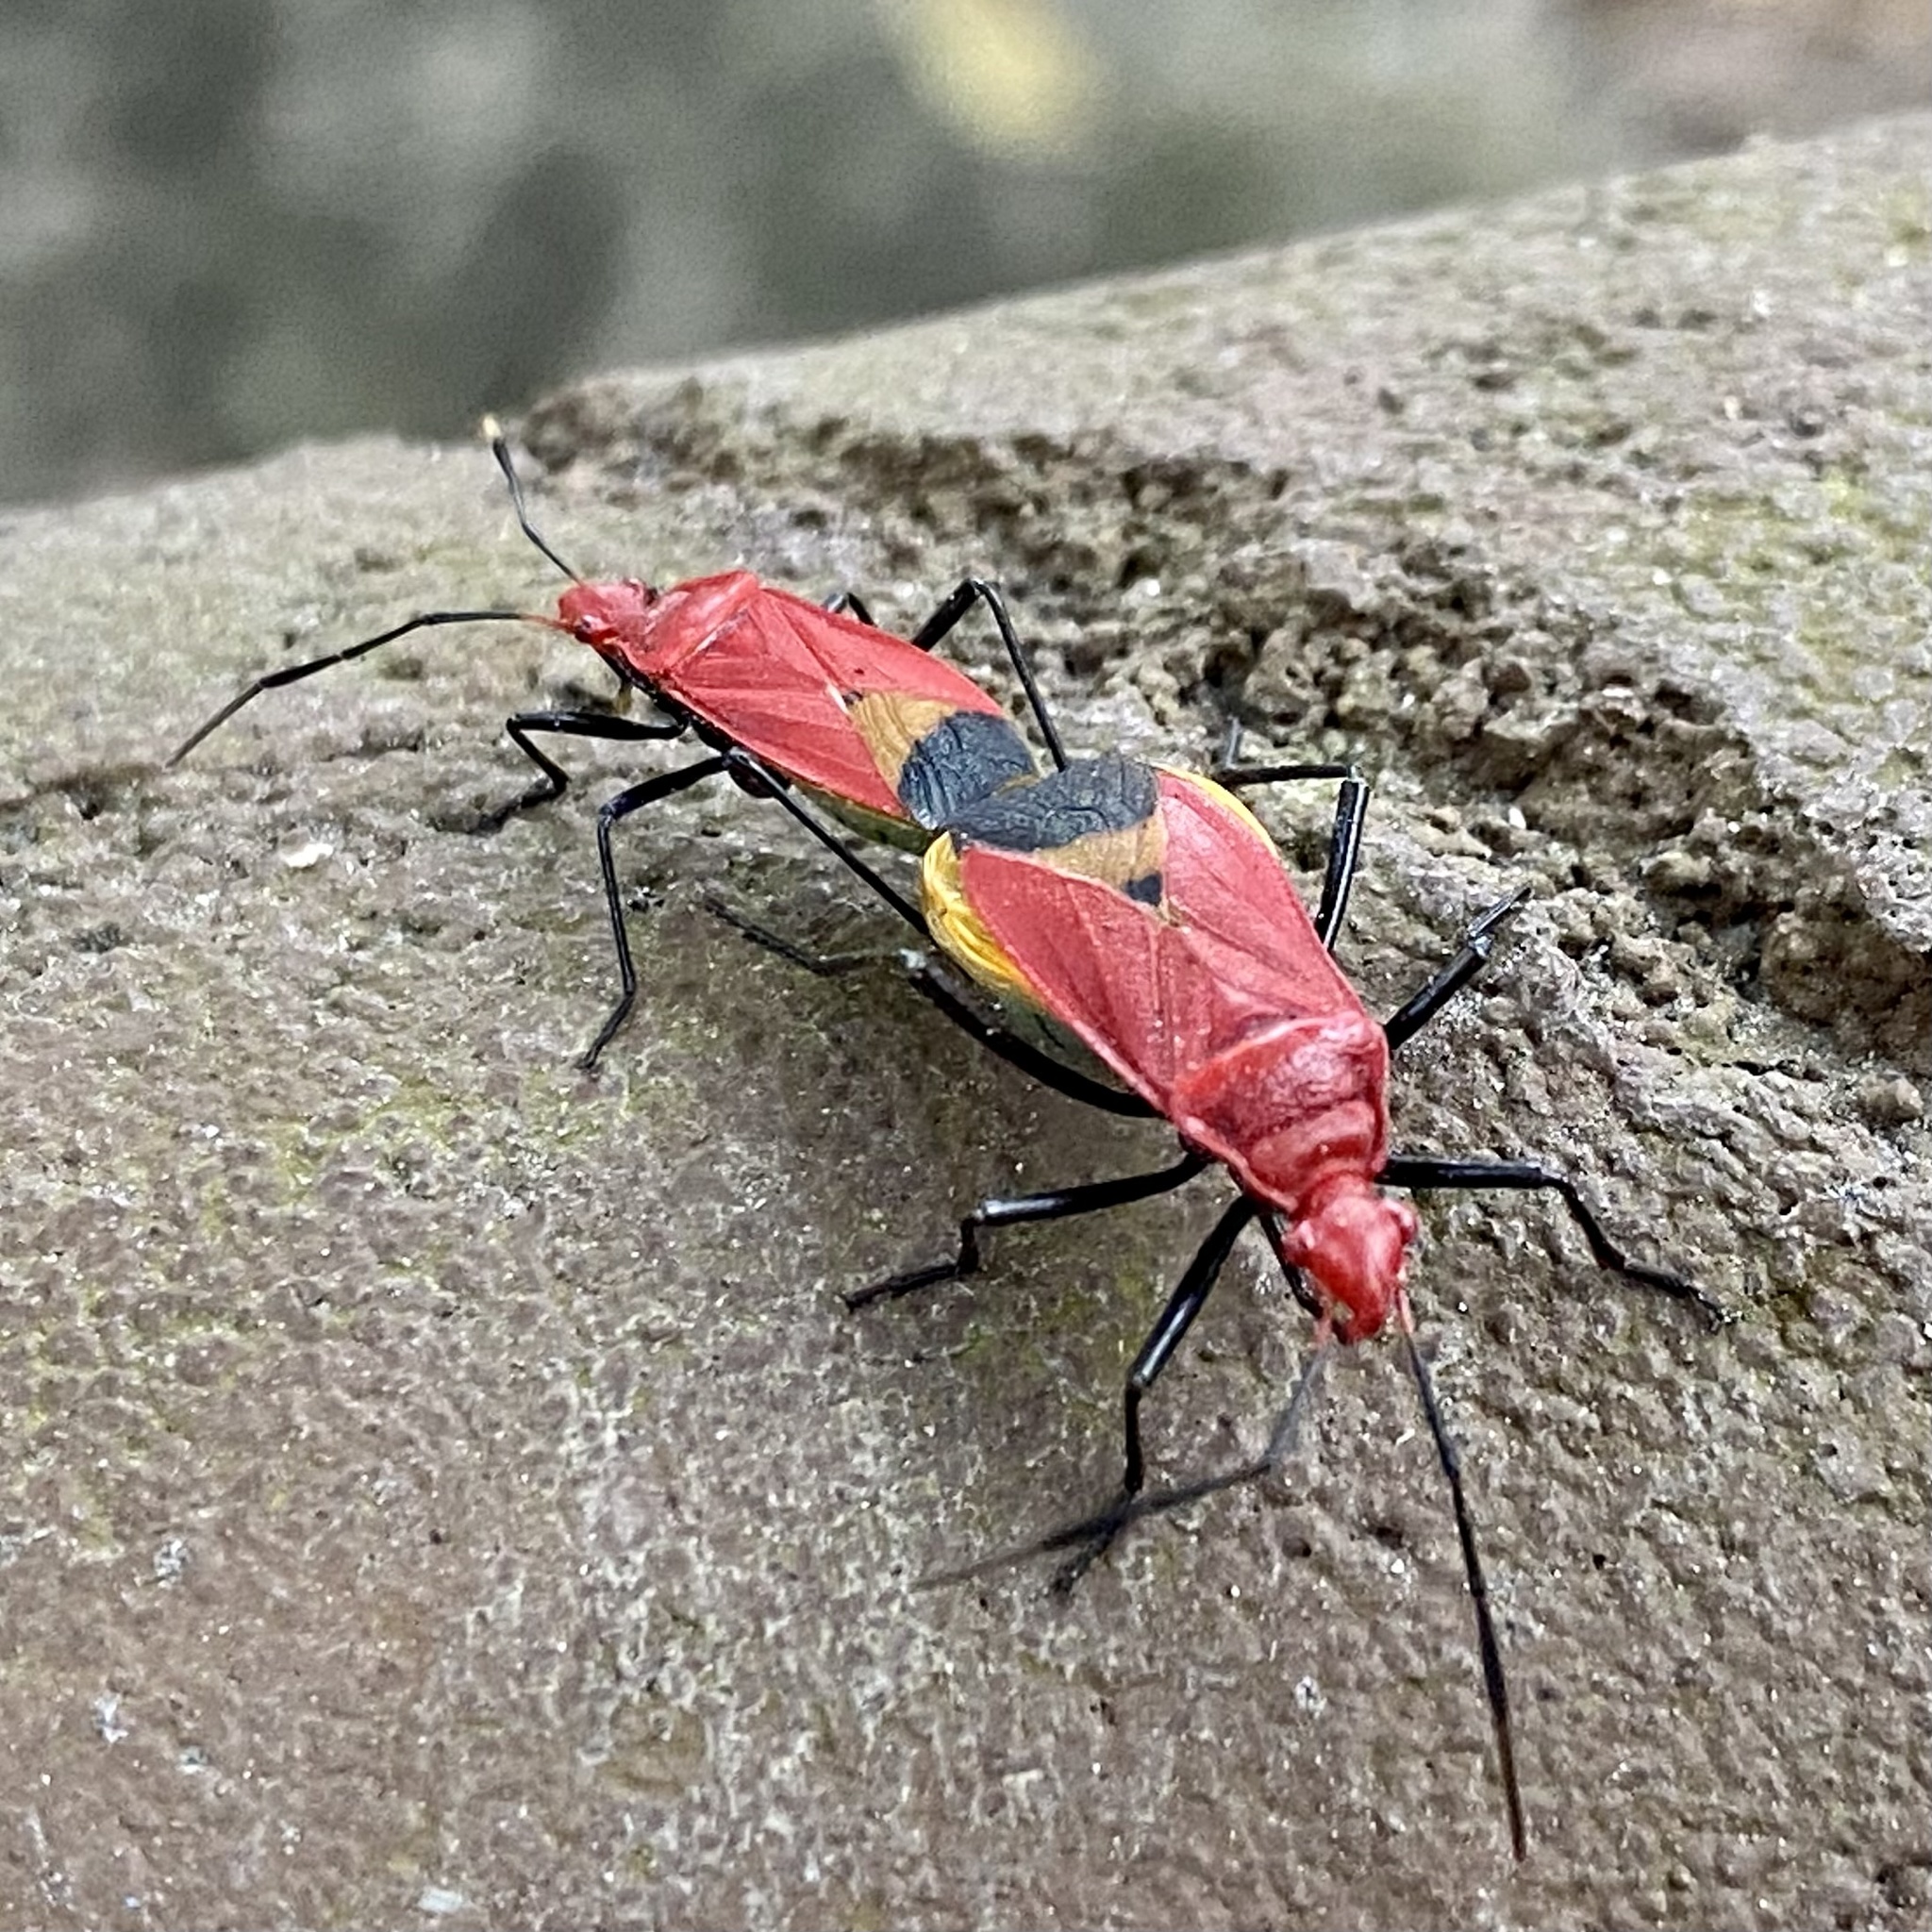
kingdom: Animalia
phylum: Arthropoda
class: Insecta
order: Hemiptera
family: Pyrrhocoridae
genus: Dindymus
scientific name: Dindymus
